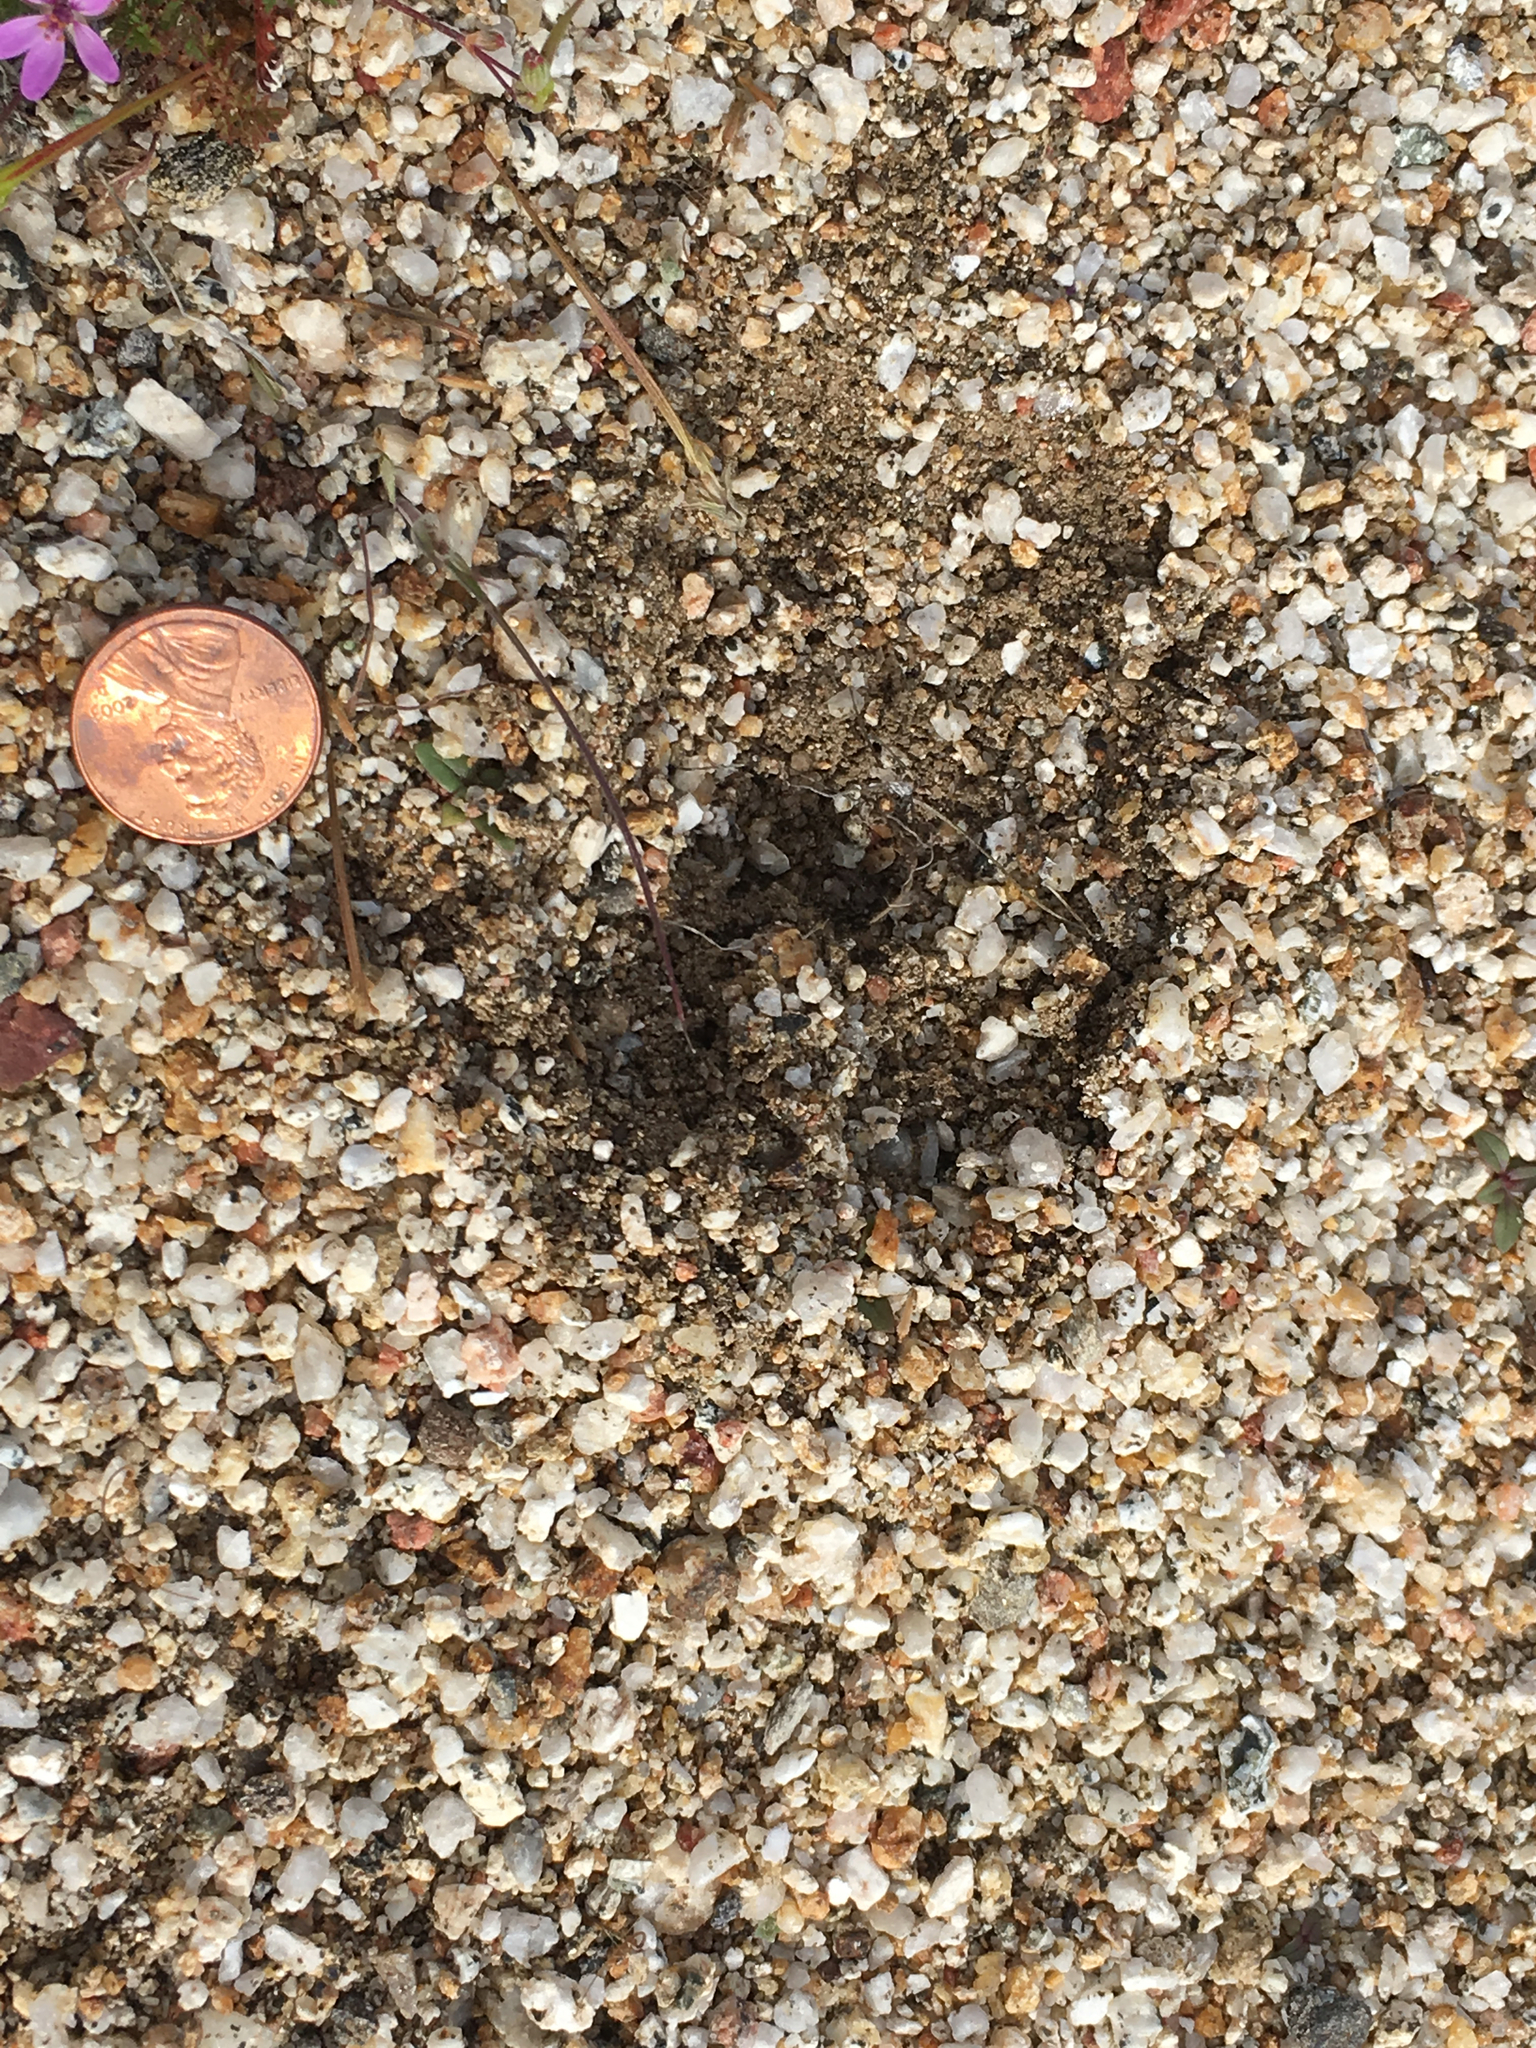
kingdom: Animalia
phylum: Chordata
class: Mammalia
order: Artiodactyla
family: Cervidae
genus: Odocoileus
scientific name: Odocoileus hemionus
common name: Mule deer
